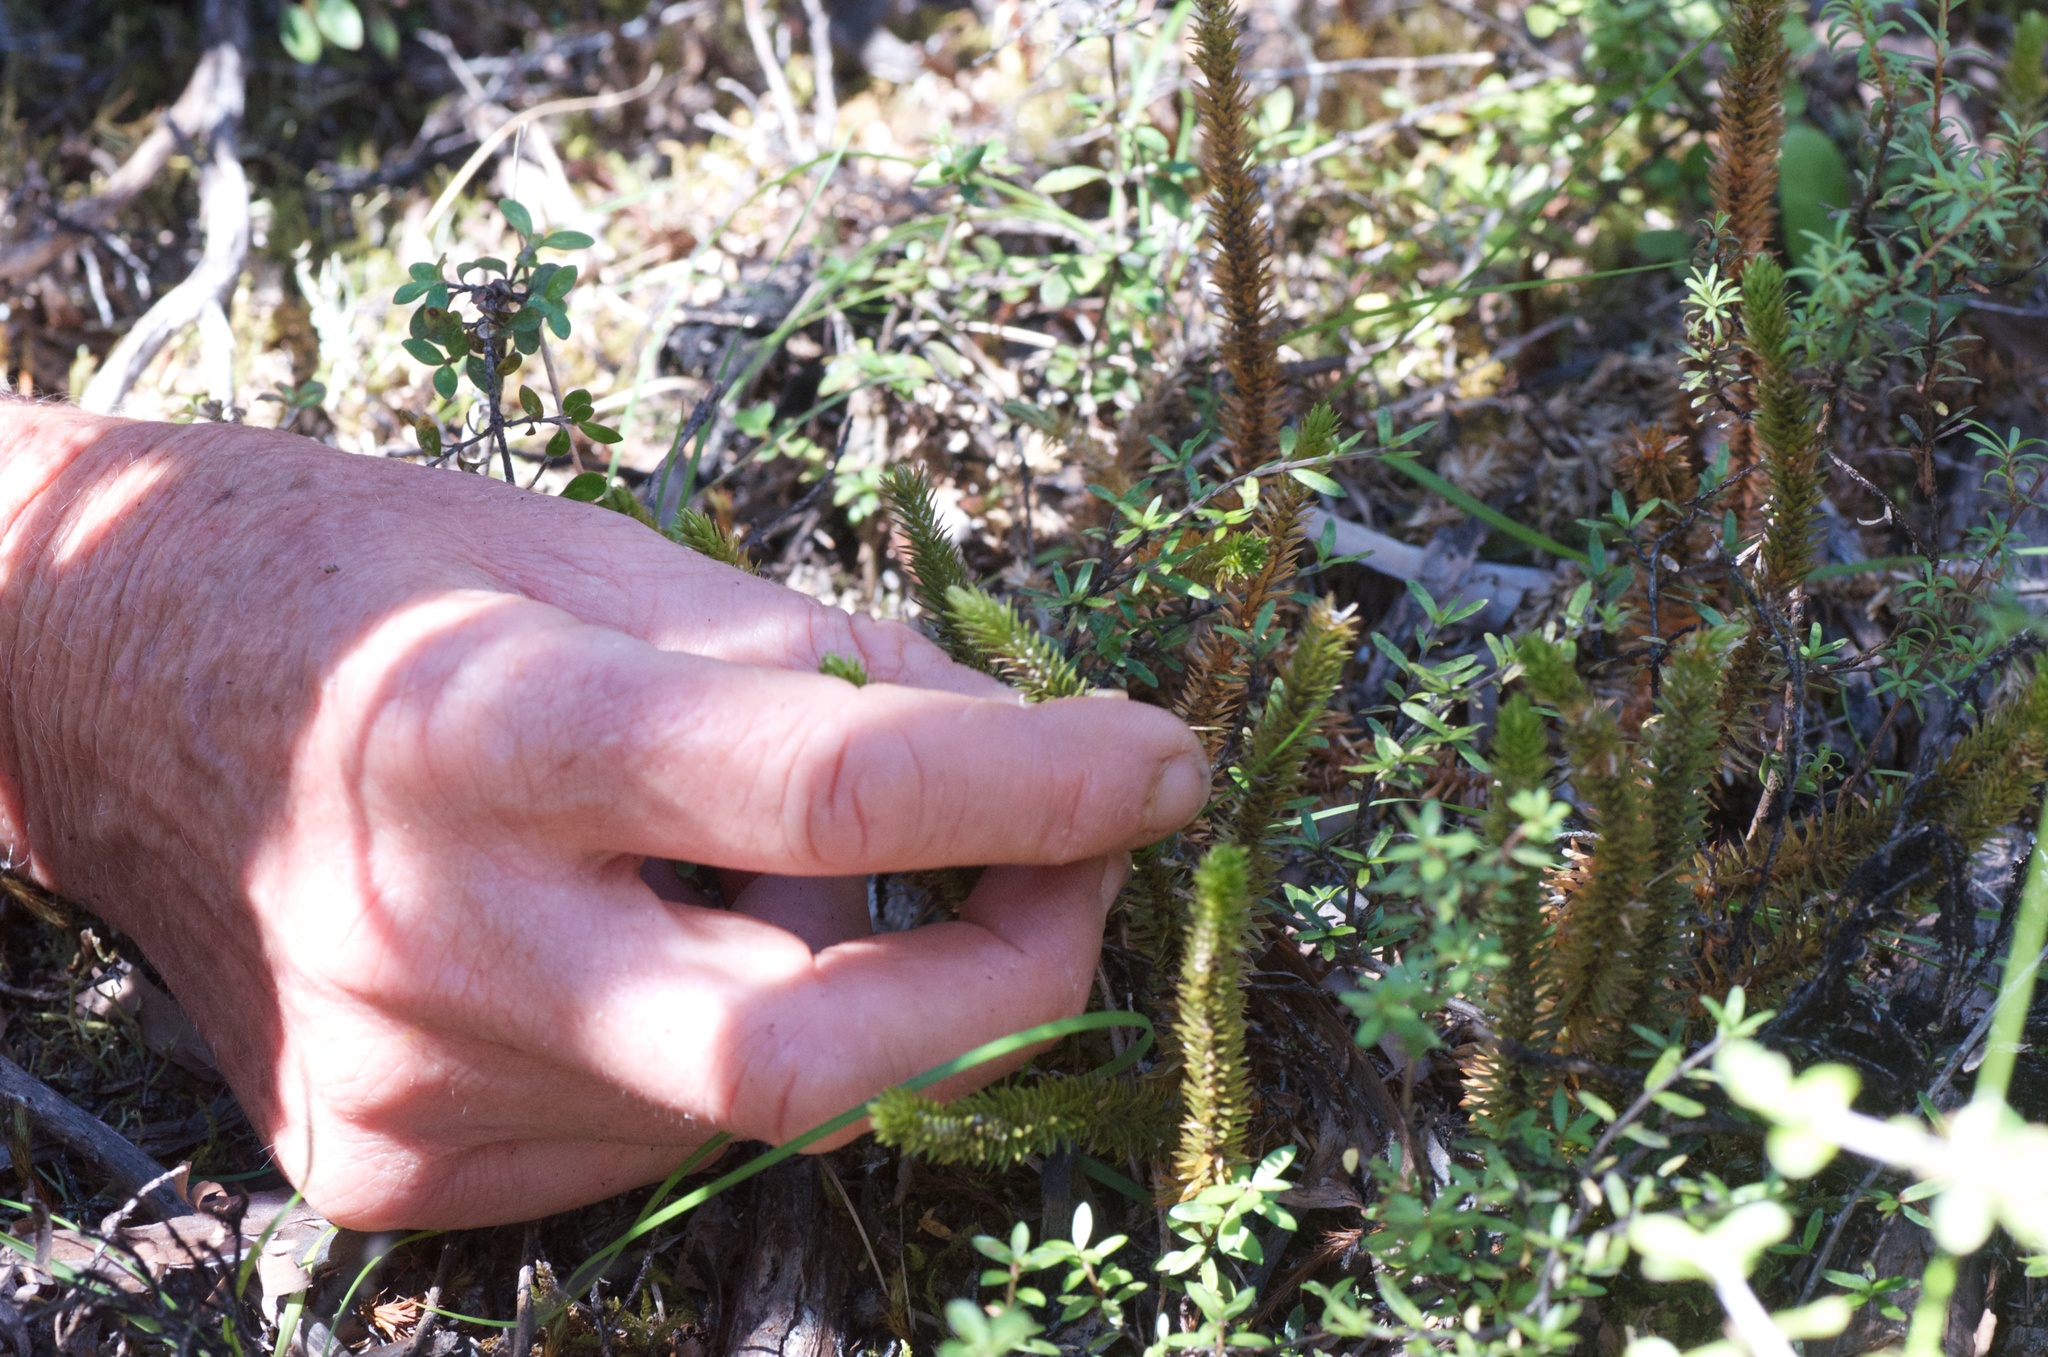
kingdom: Plantae
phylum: Tracheophyta
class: Lycopodiopsida
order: Lycopodiales
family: Lycopodiaceae
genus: Huperzia
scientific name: Huperzia australiana
